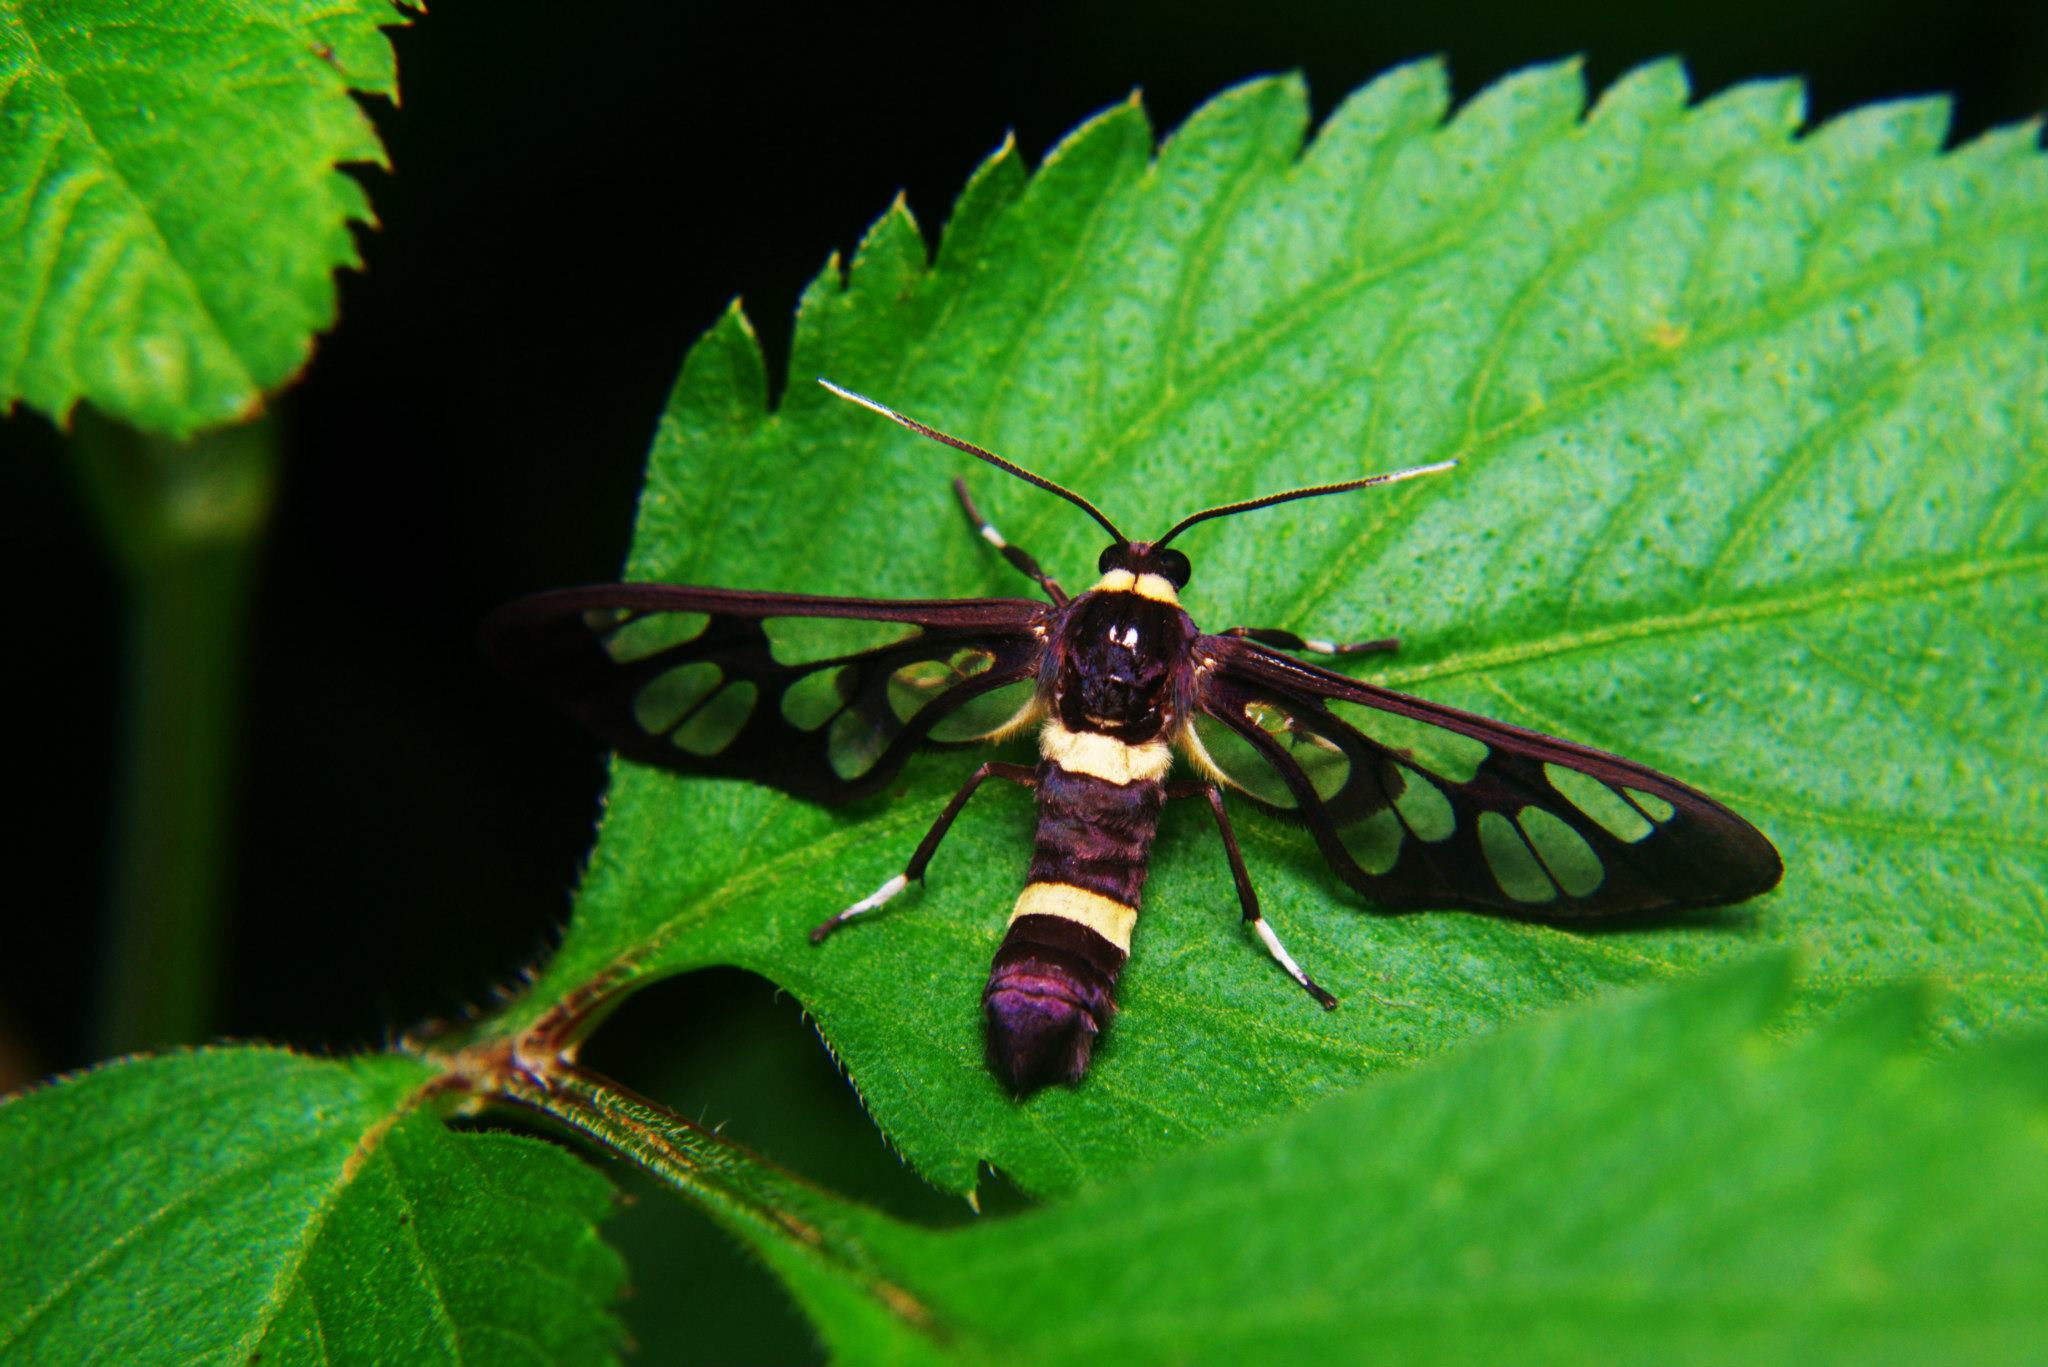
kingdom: Animalia
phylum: Arthropoda
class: Insecta
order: Lepidoptera
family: Erebidae
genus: Syntomoides
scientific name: Syntomoides imaon
